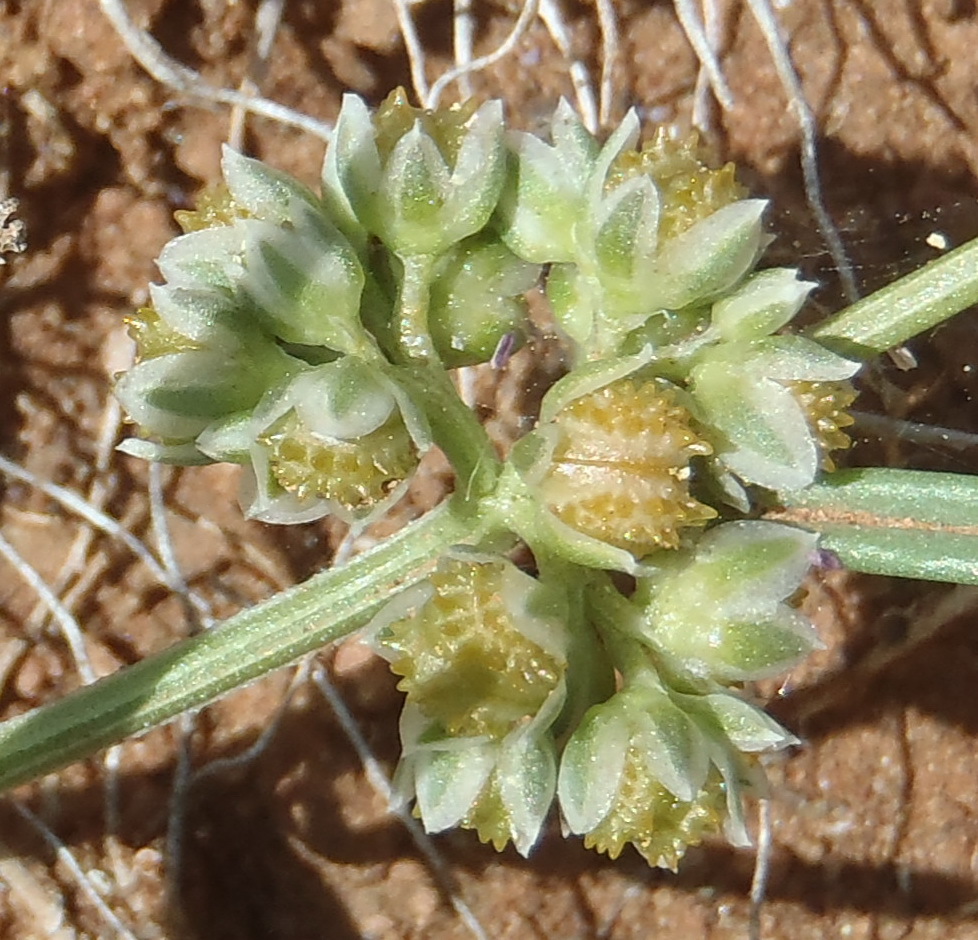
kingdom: Plantae
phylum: Tracheophyta
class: Magnoliopsida
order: Caryophyllales
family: Limeaceae
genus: Limeum
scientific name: Limeum sulcatum
